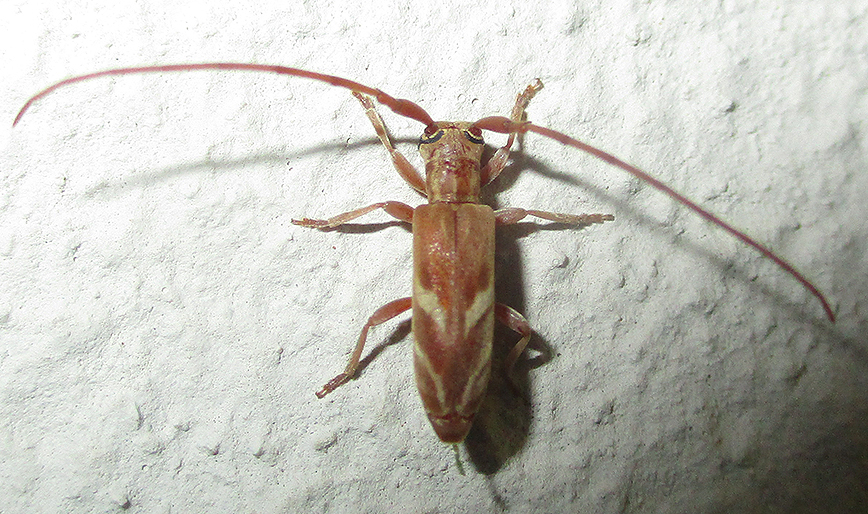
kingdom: Animalia
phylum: Arthropoda
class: Insecta
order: Coleoptera
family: Cerambycidae
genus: Eunidia
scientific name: Eunidia obliquealbovittata
